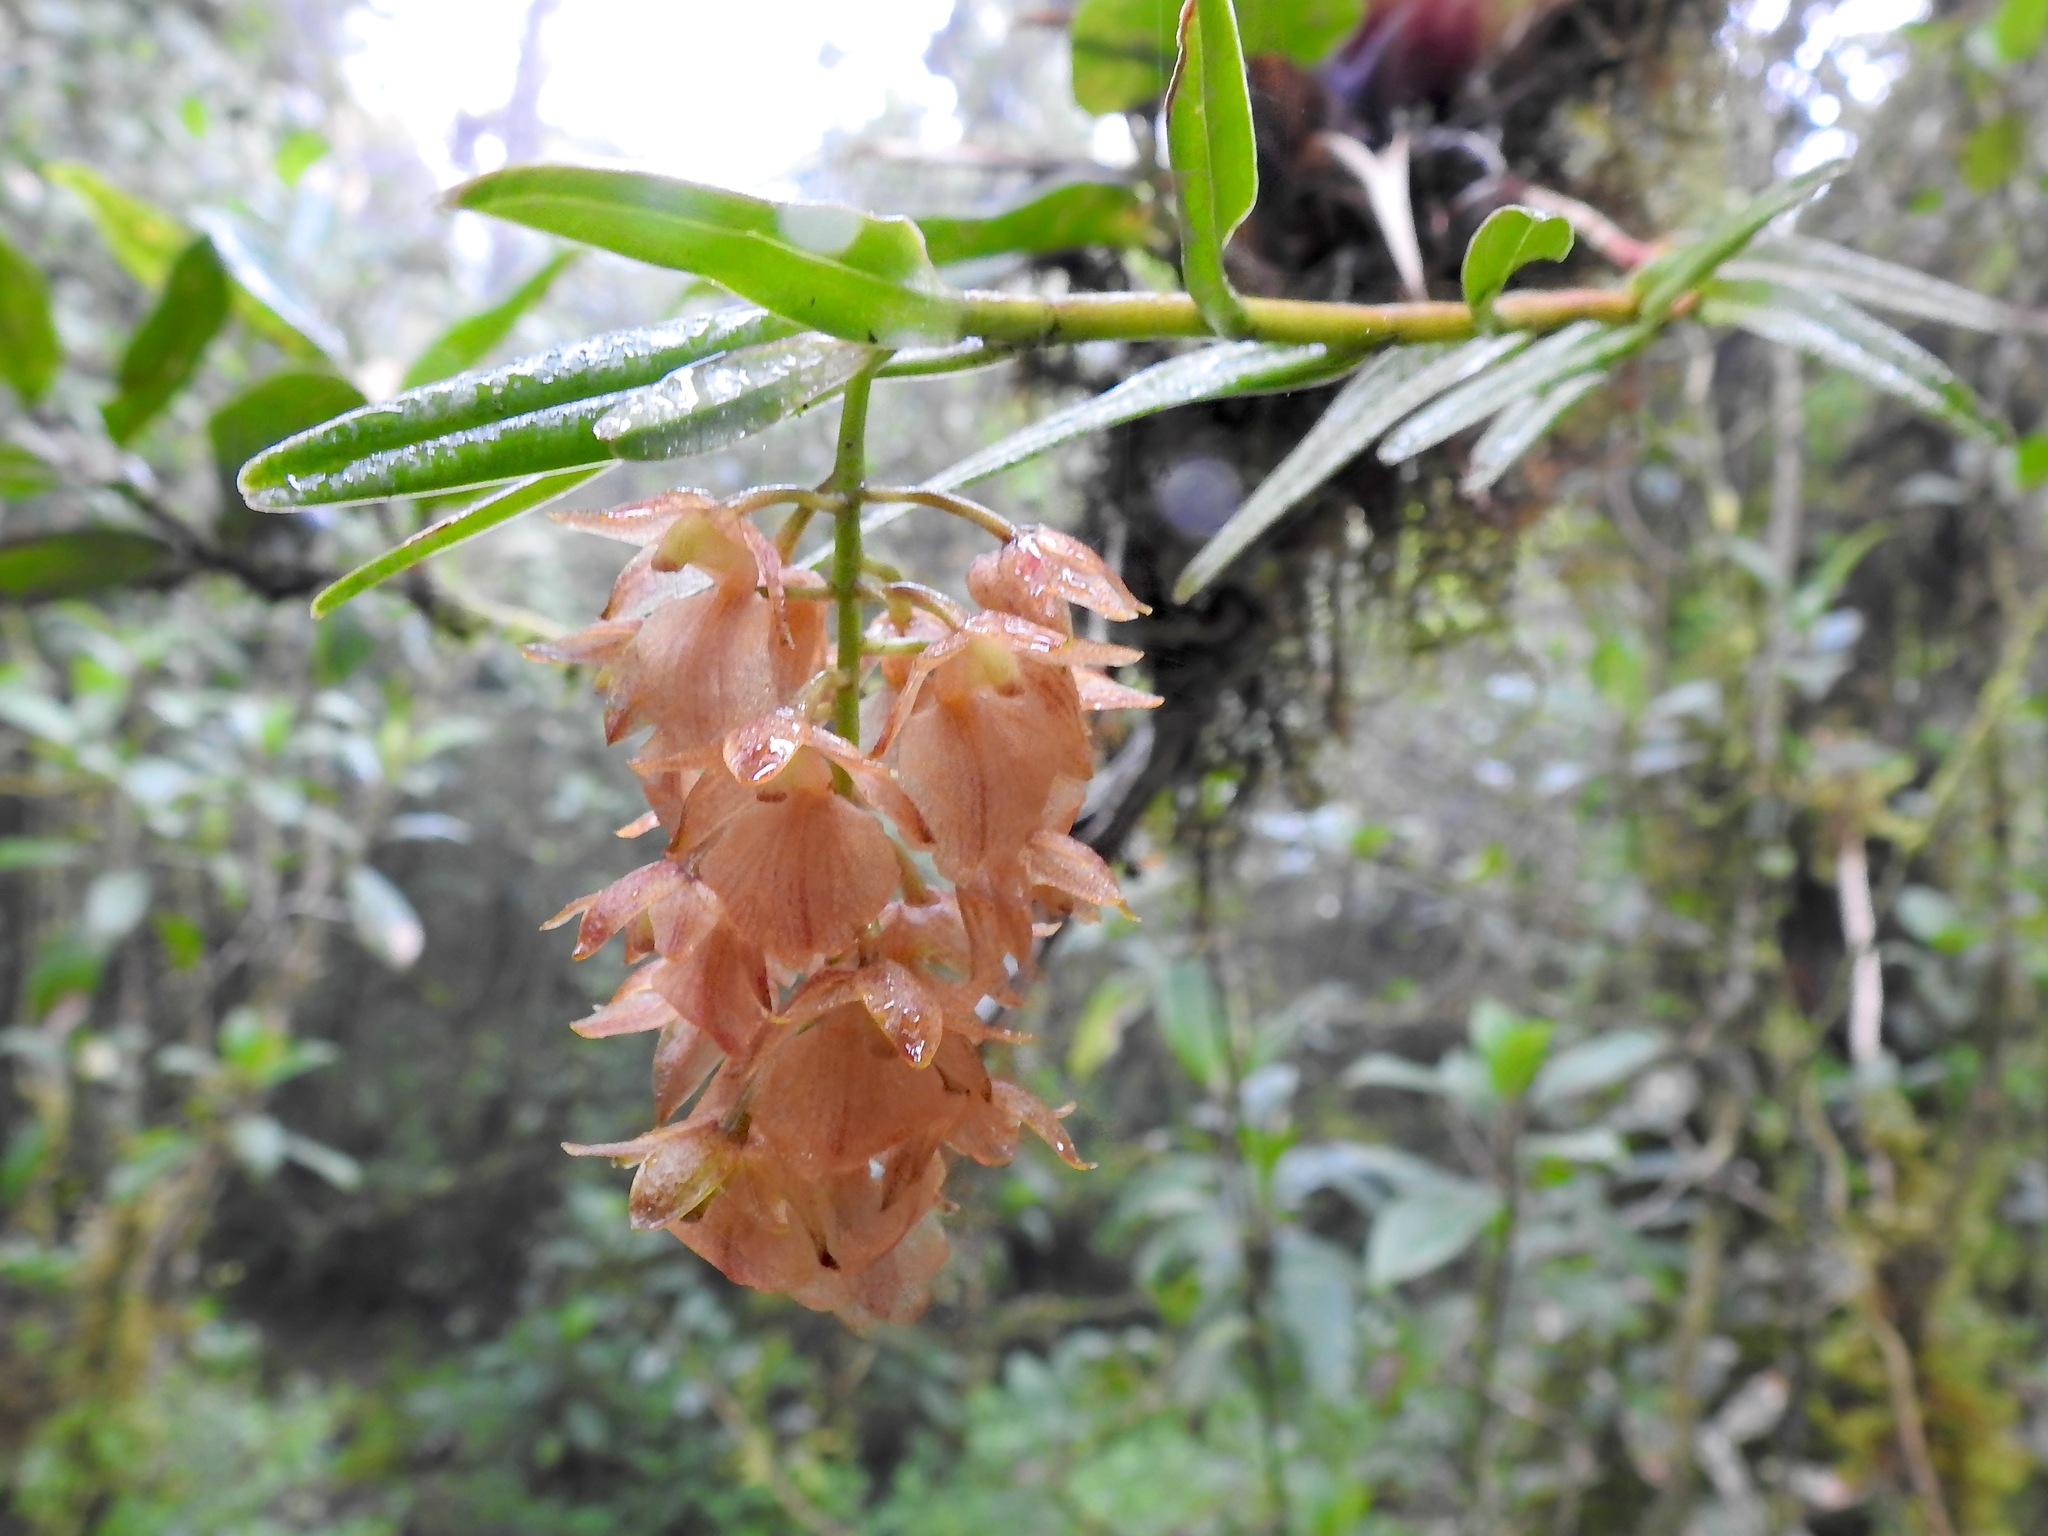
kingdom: Plantae
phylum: Tracheophyta
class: Liliopsida
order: Asparagales
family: Orchidaceae
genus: Epidendrum
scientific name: Epidendrum arevaloi
